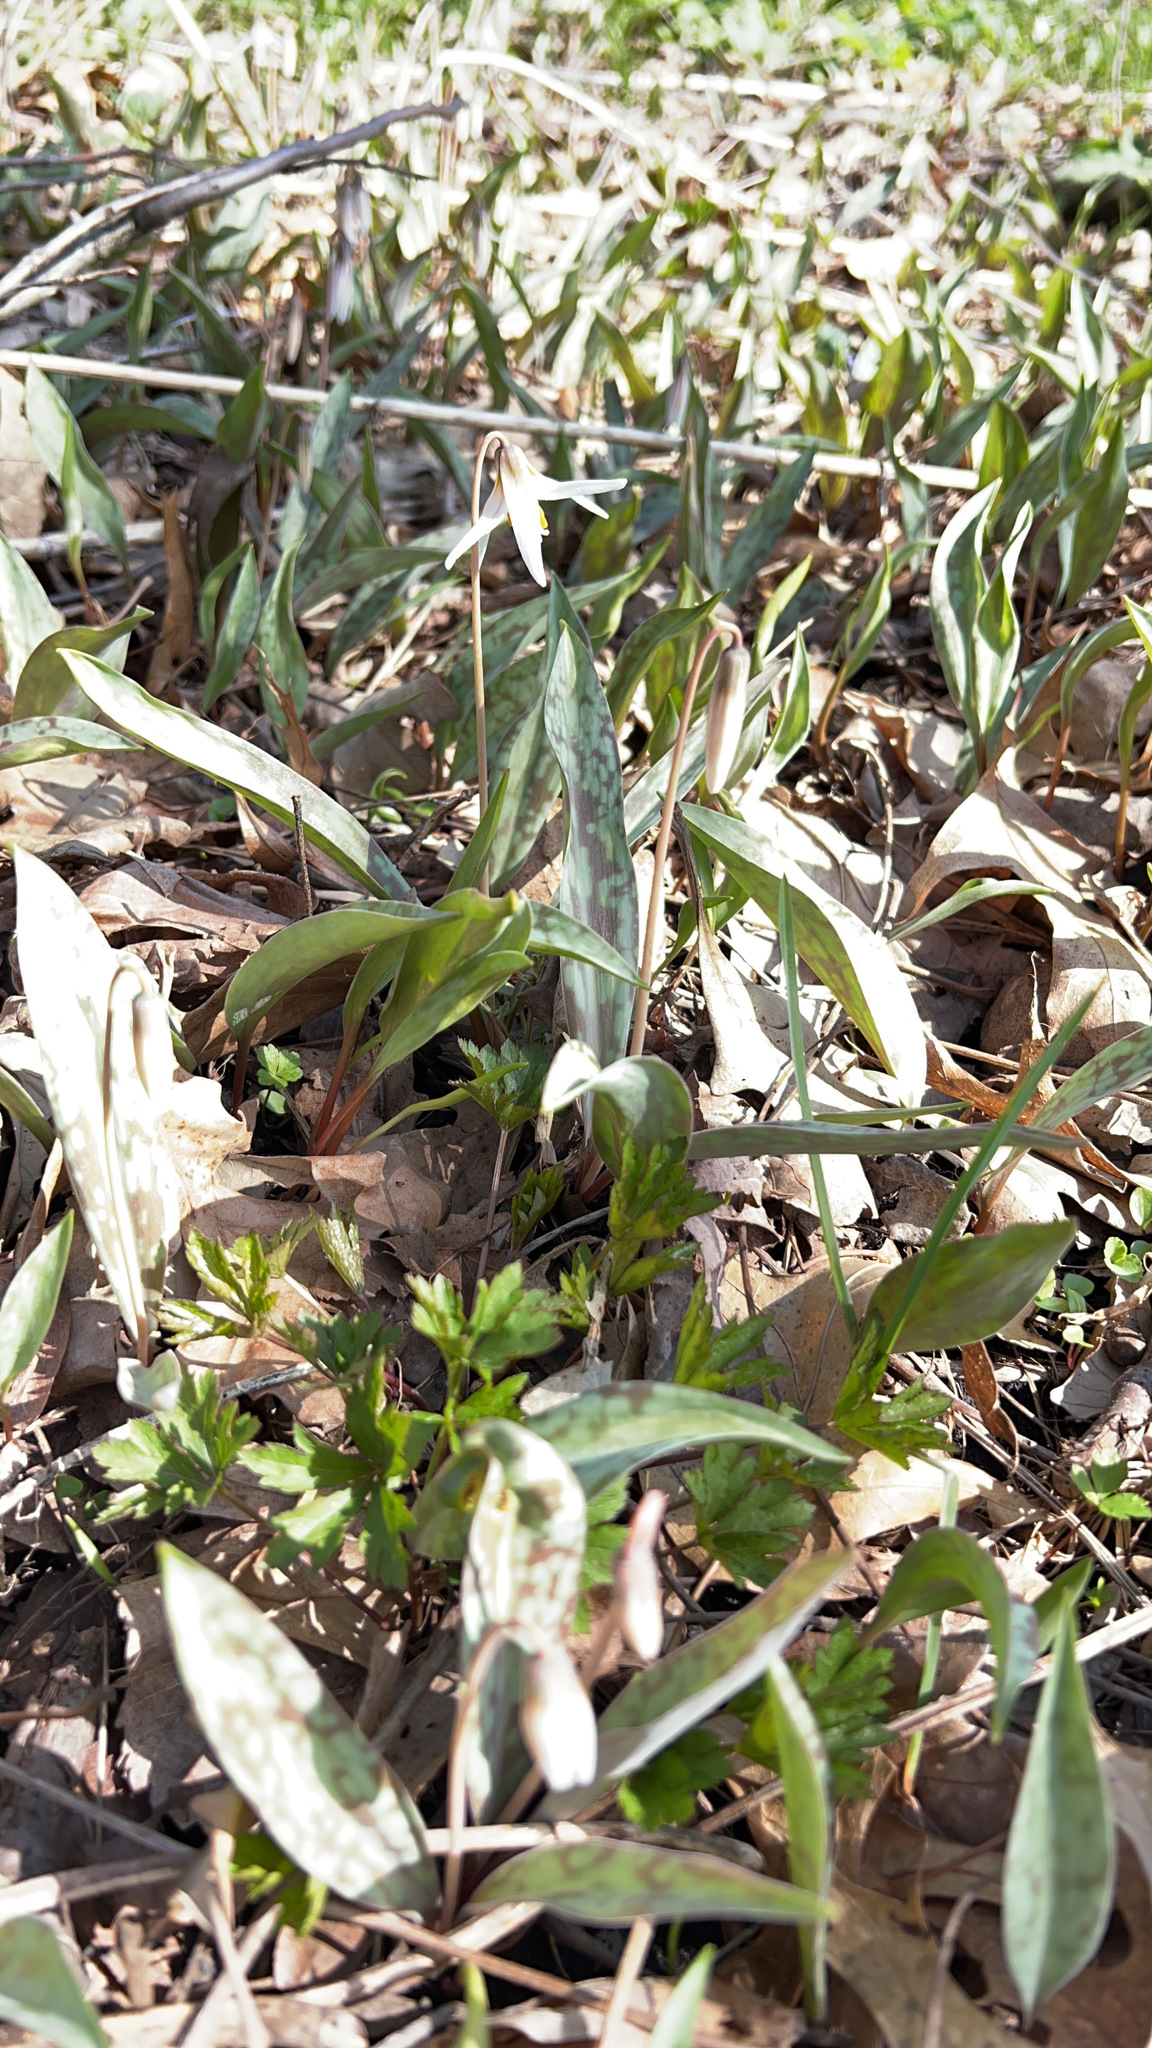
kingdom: Plantae
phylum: Tracheophyta
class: Liliopsida
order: Liliales
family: Liliaceae
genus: Erythronium
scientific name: Erythronium albidum
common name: White trout-lily
